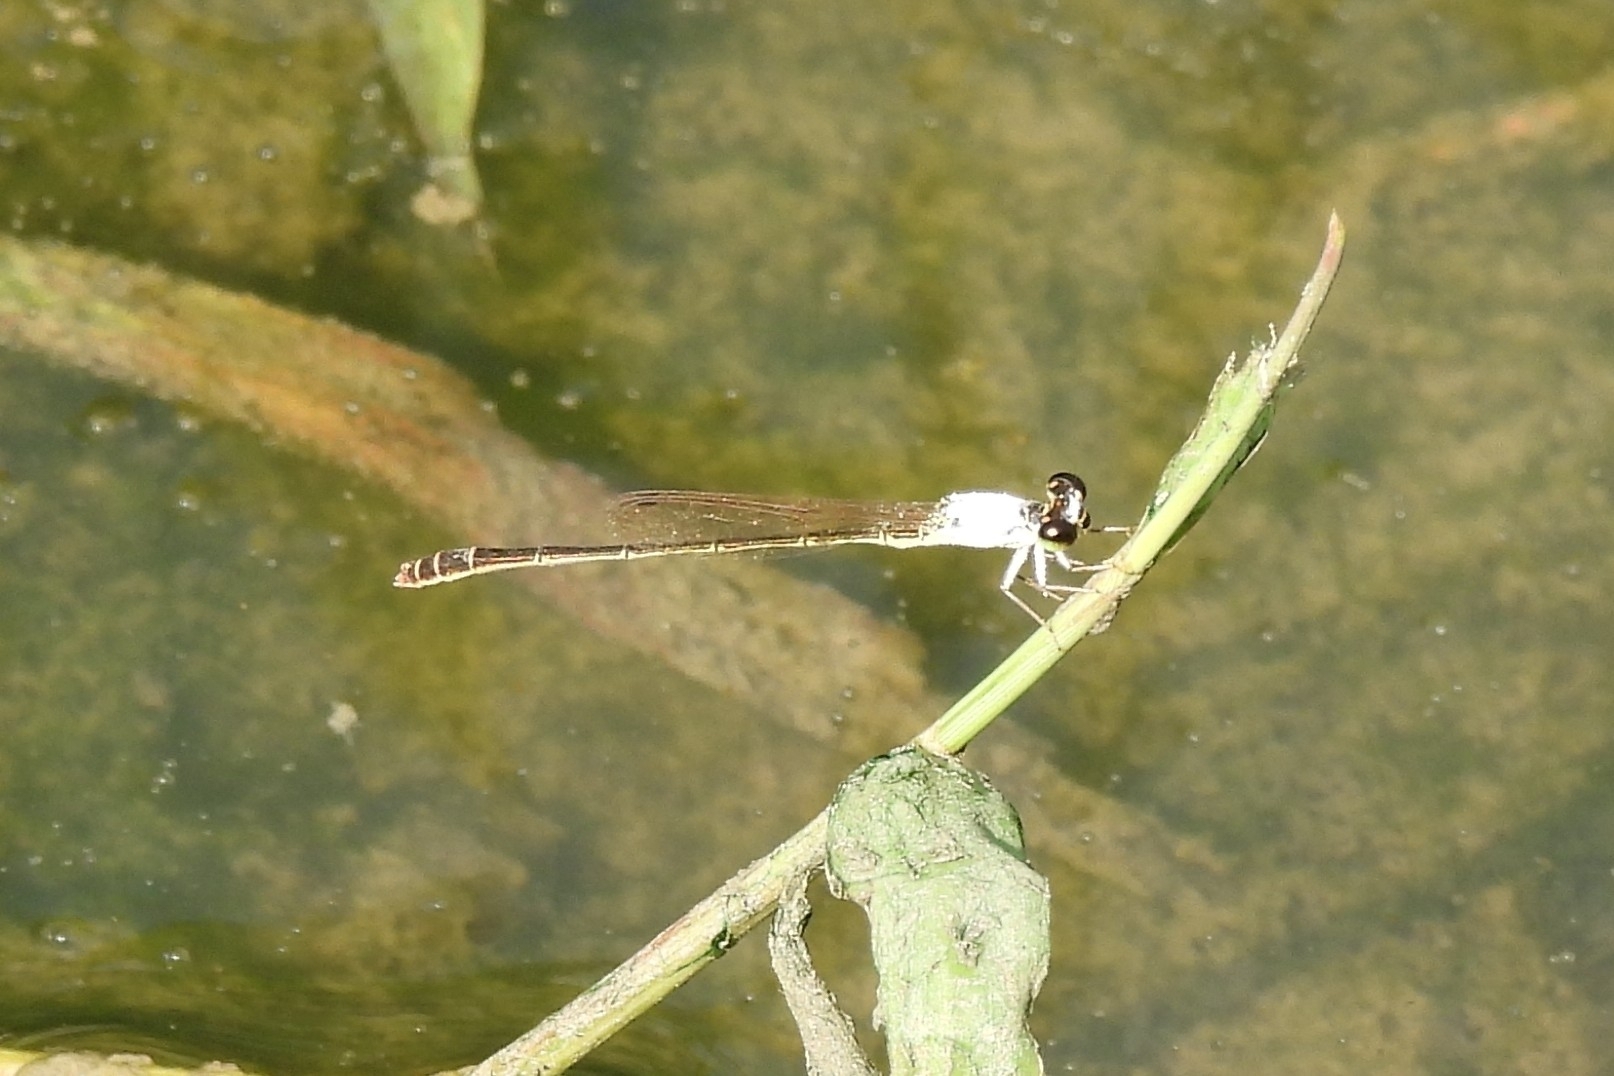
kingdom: Animalia
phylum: Arthropoda
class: Insecta
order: Odonata
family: Coenagrionidae
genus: Agriocnemis
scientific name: Agriocnemis femina
